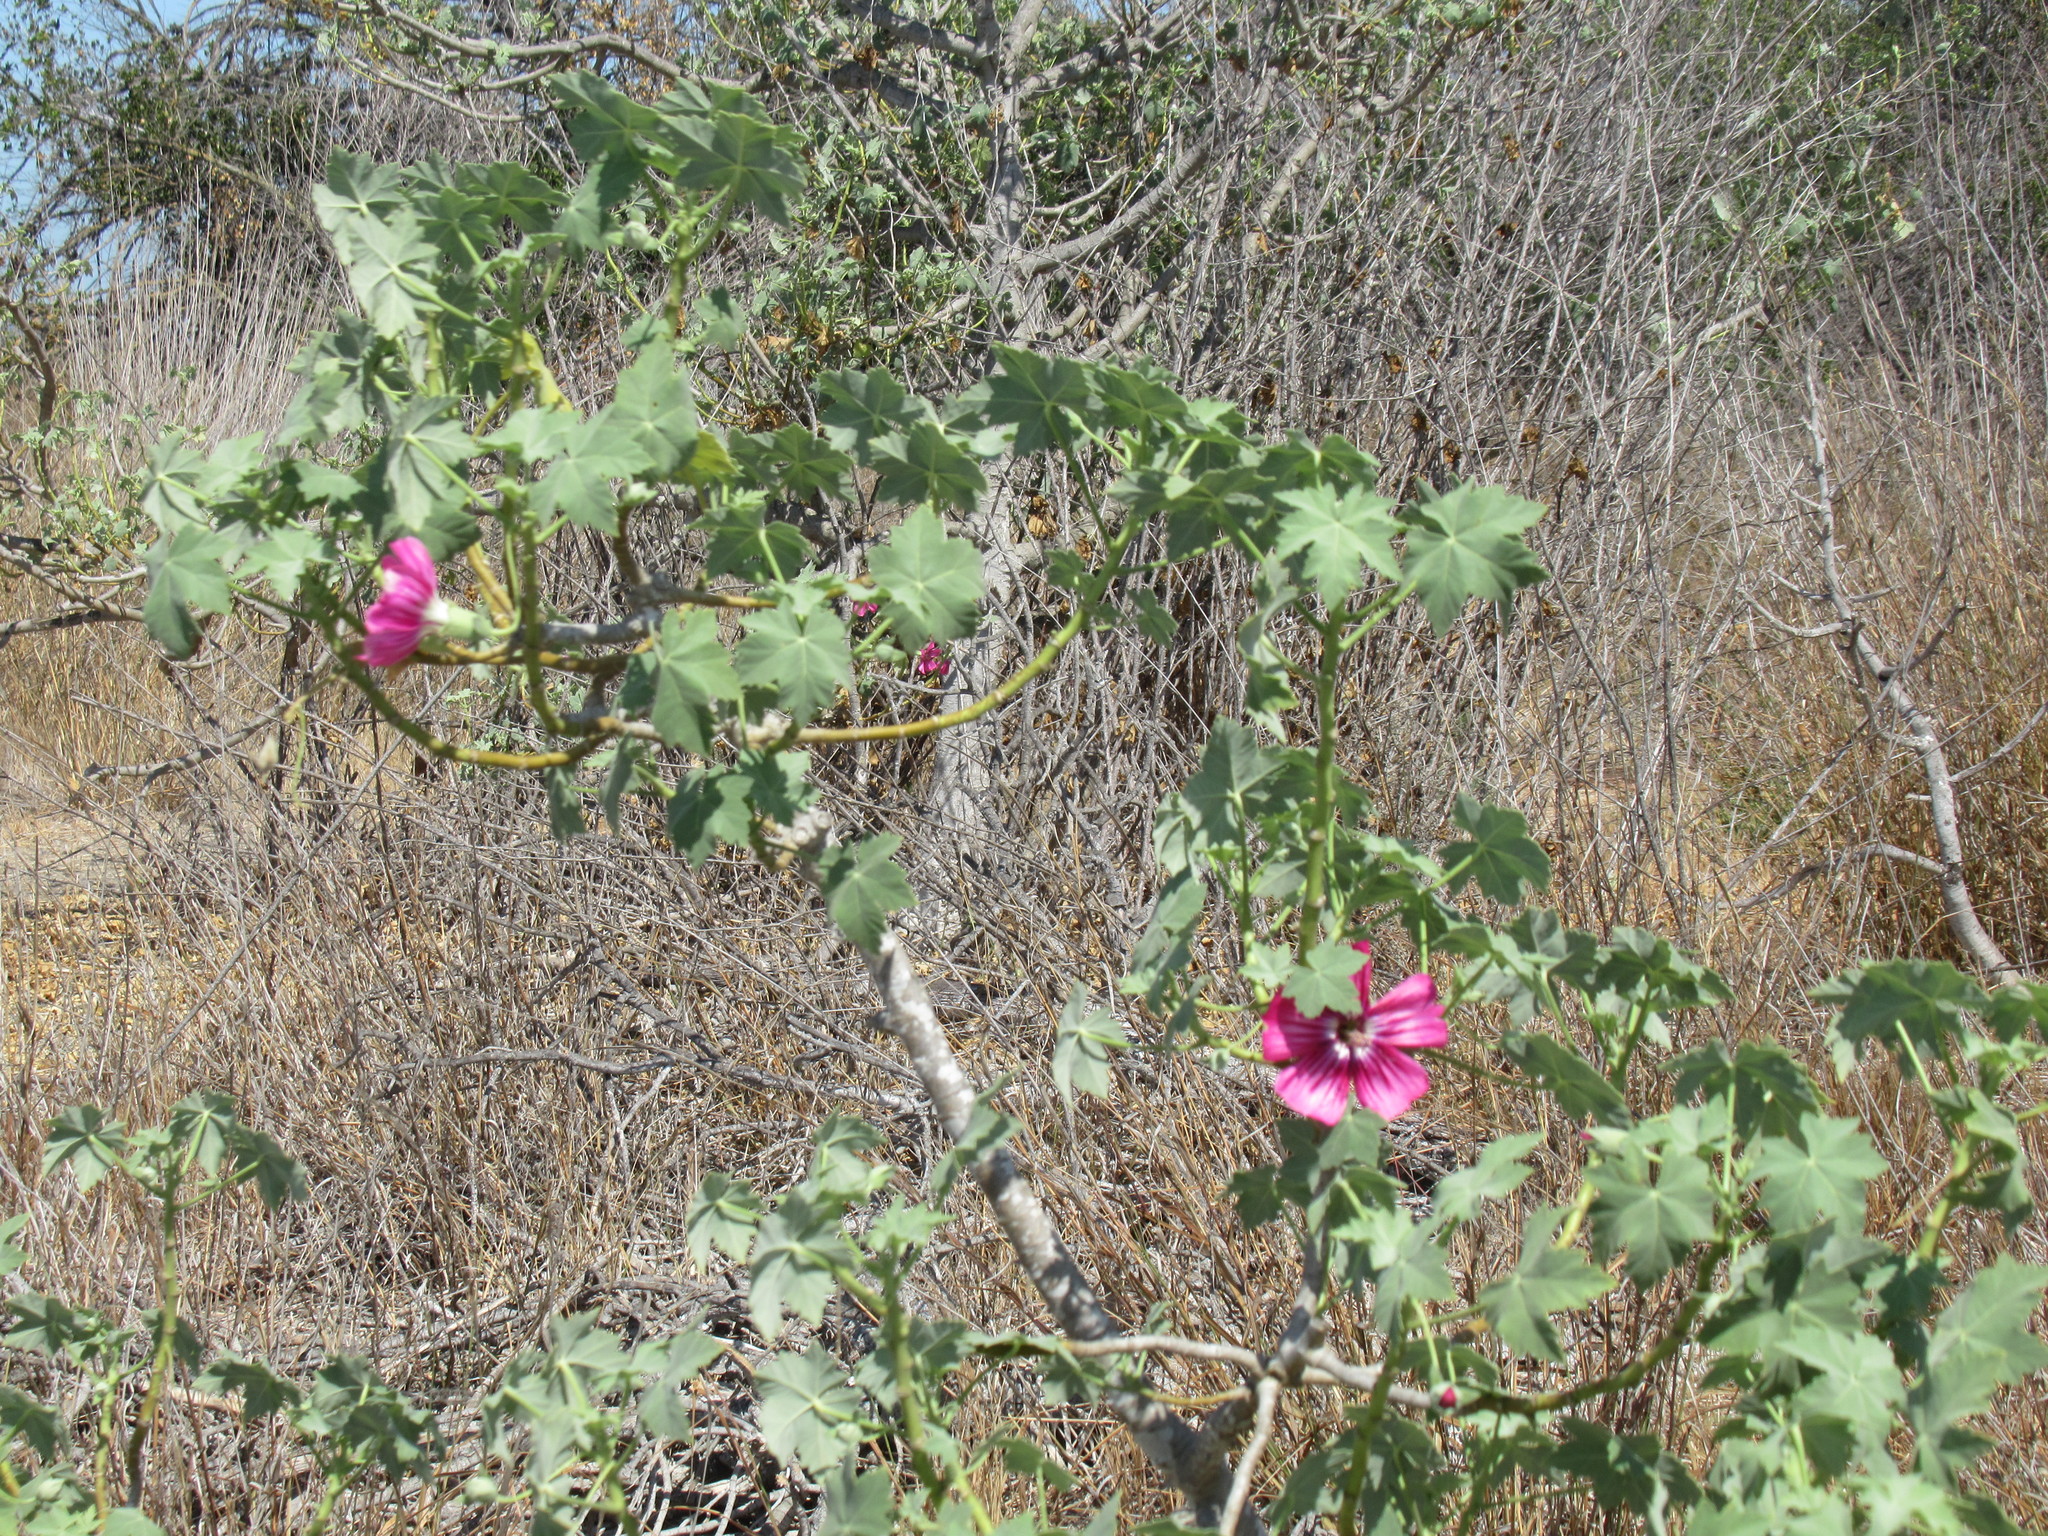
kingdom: Plantae
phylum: Tracheophyta
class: Magnoliopsida
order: Malvales
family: Malvaceae
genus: Malva
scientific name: Malva assurgentiflora
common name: Island mallow
